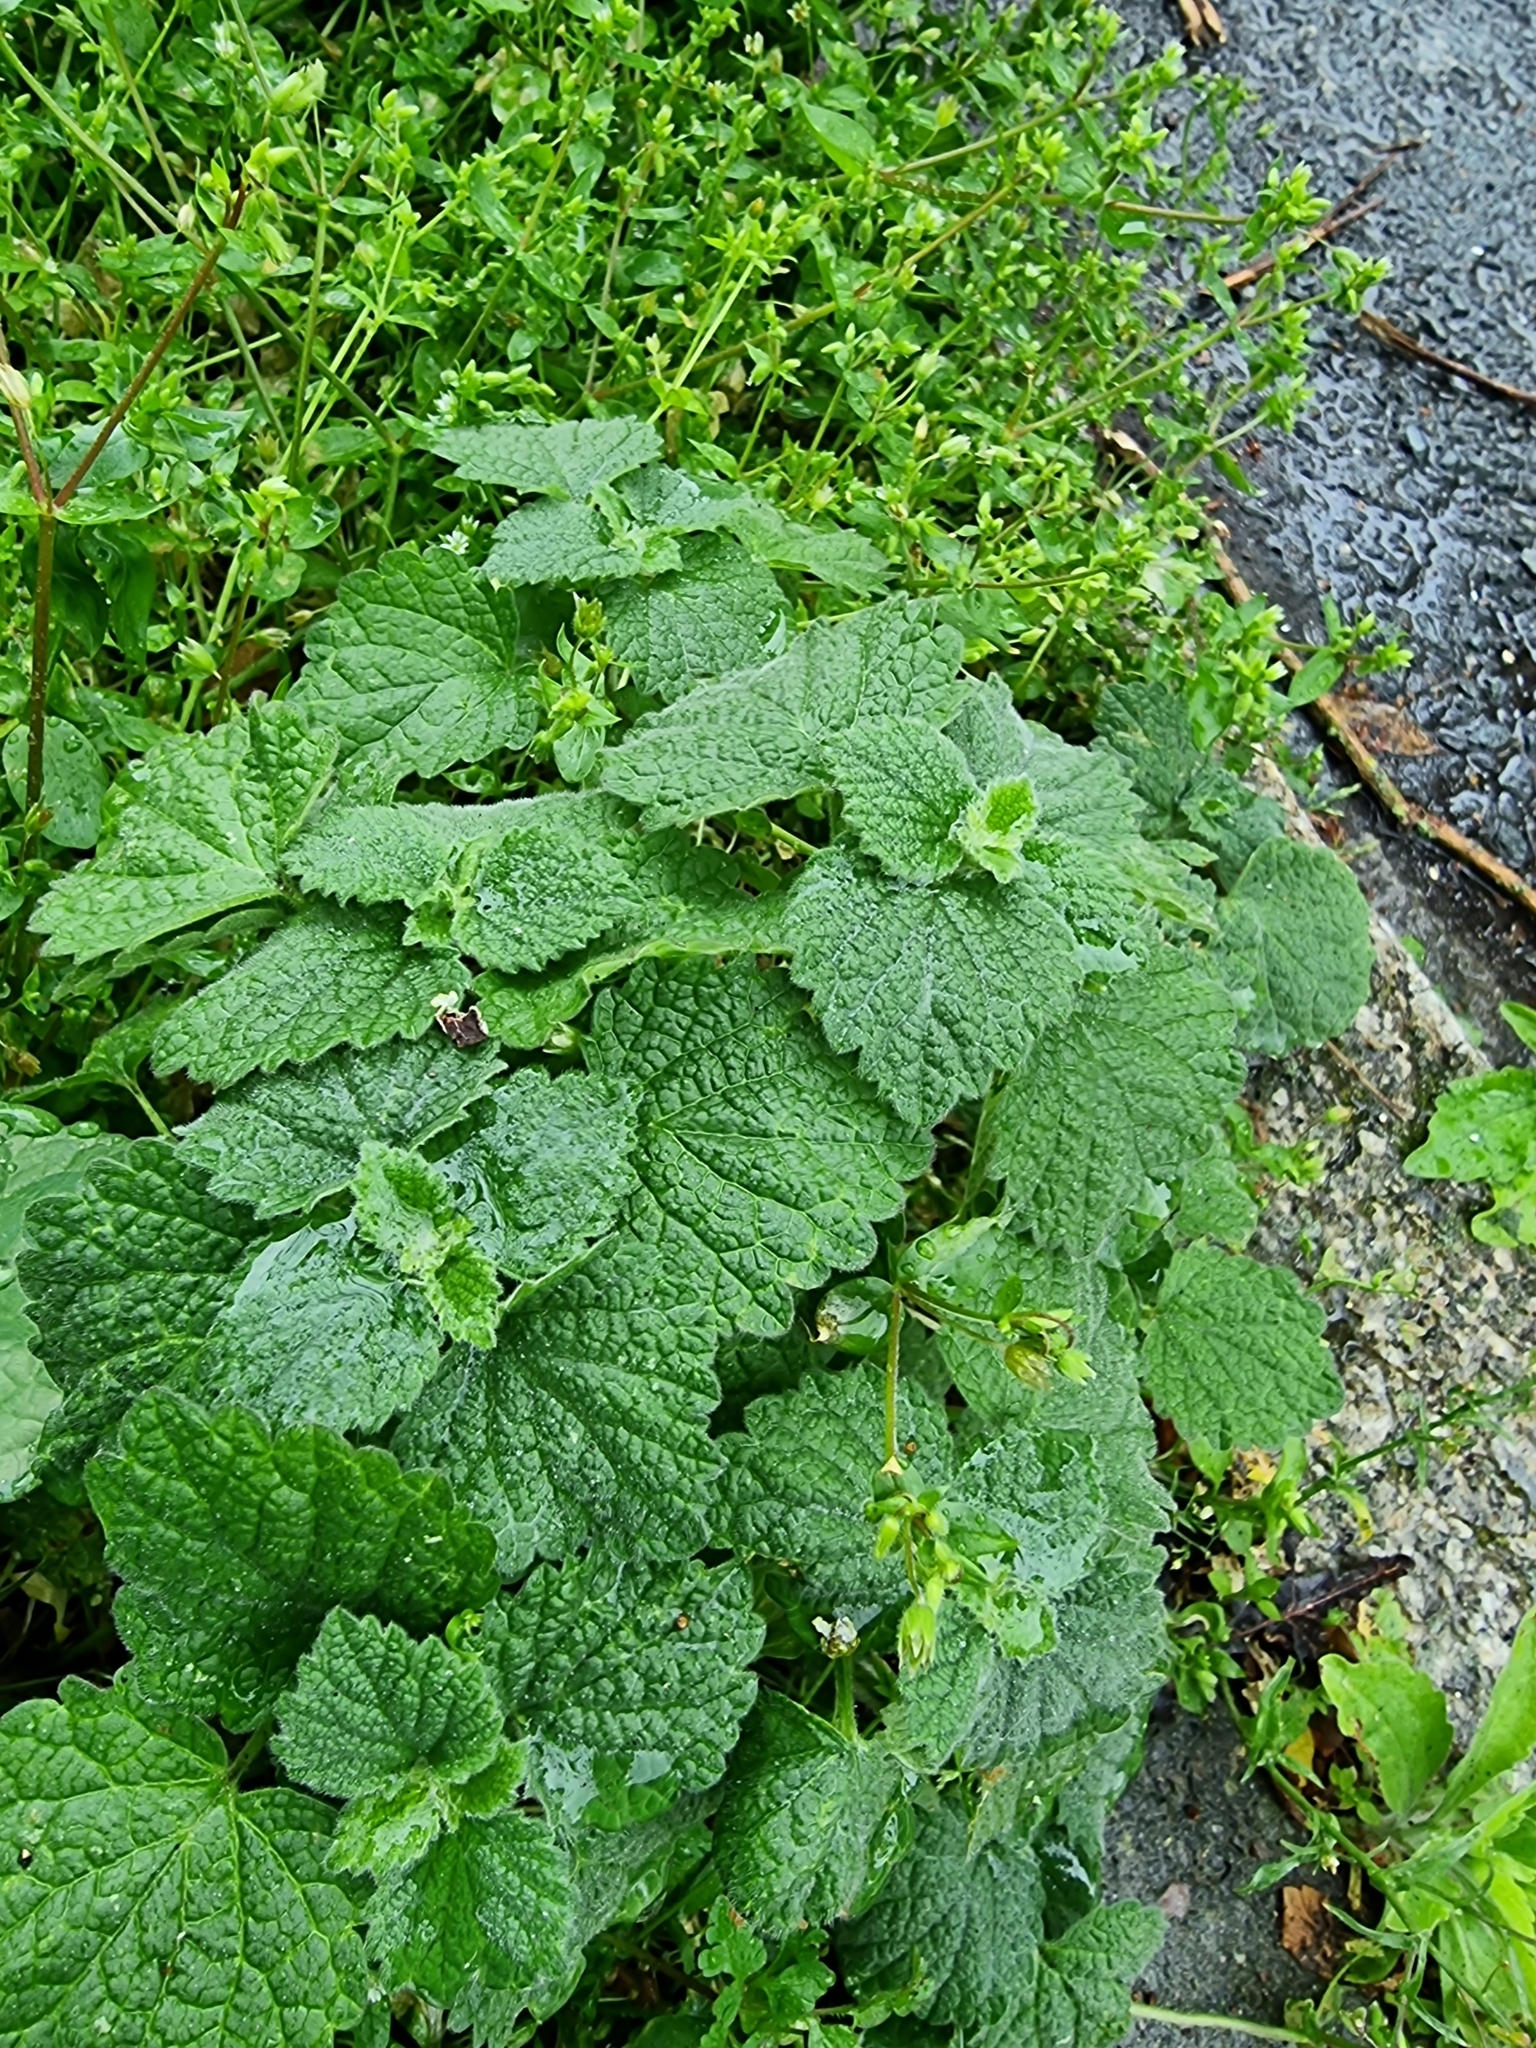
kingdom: Plantae
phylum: Tracheophyta
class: Magnoliopsida
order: Lamiales
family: Lamiaceae
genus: Ballota
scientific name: Ballota nigra
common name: Black horehound
